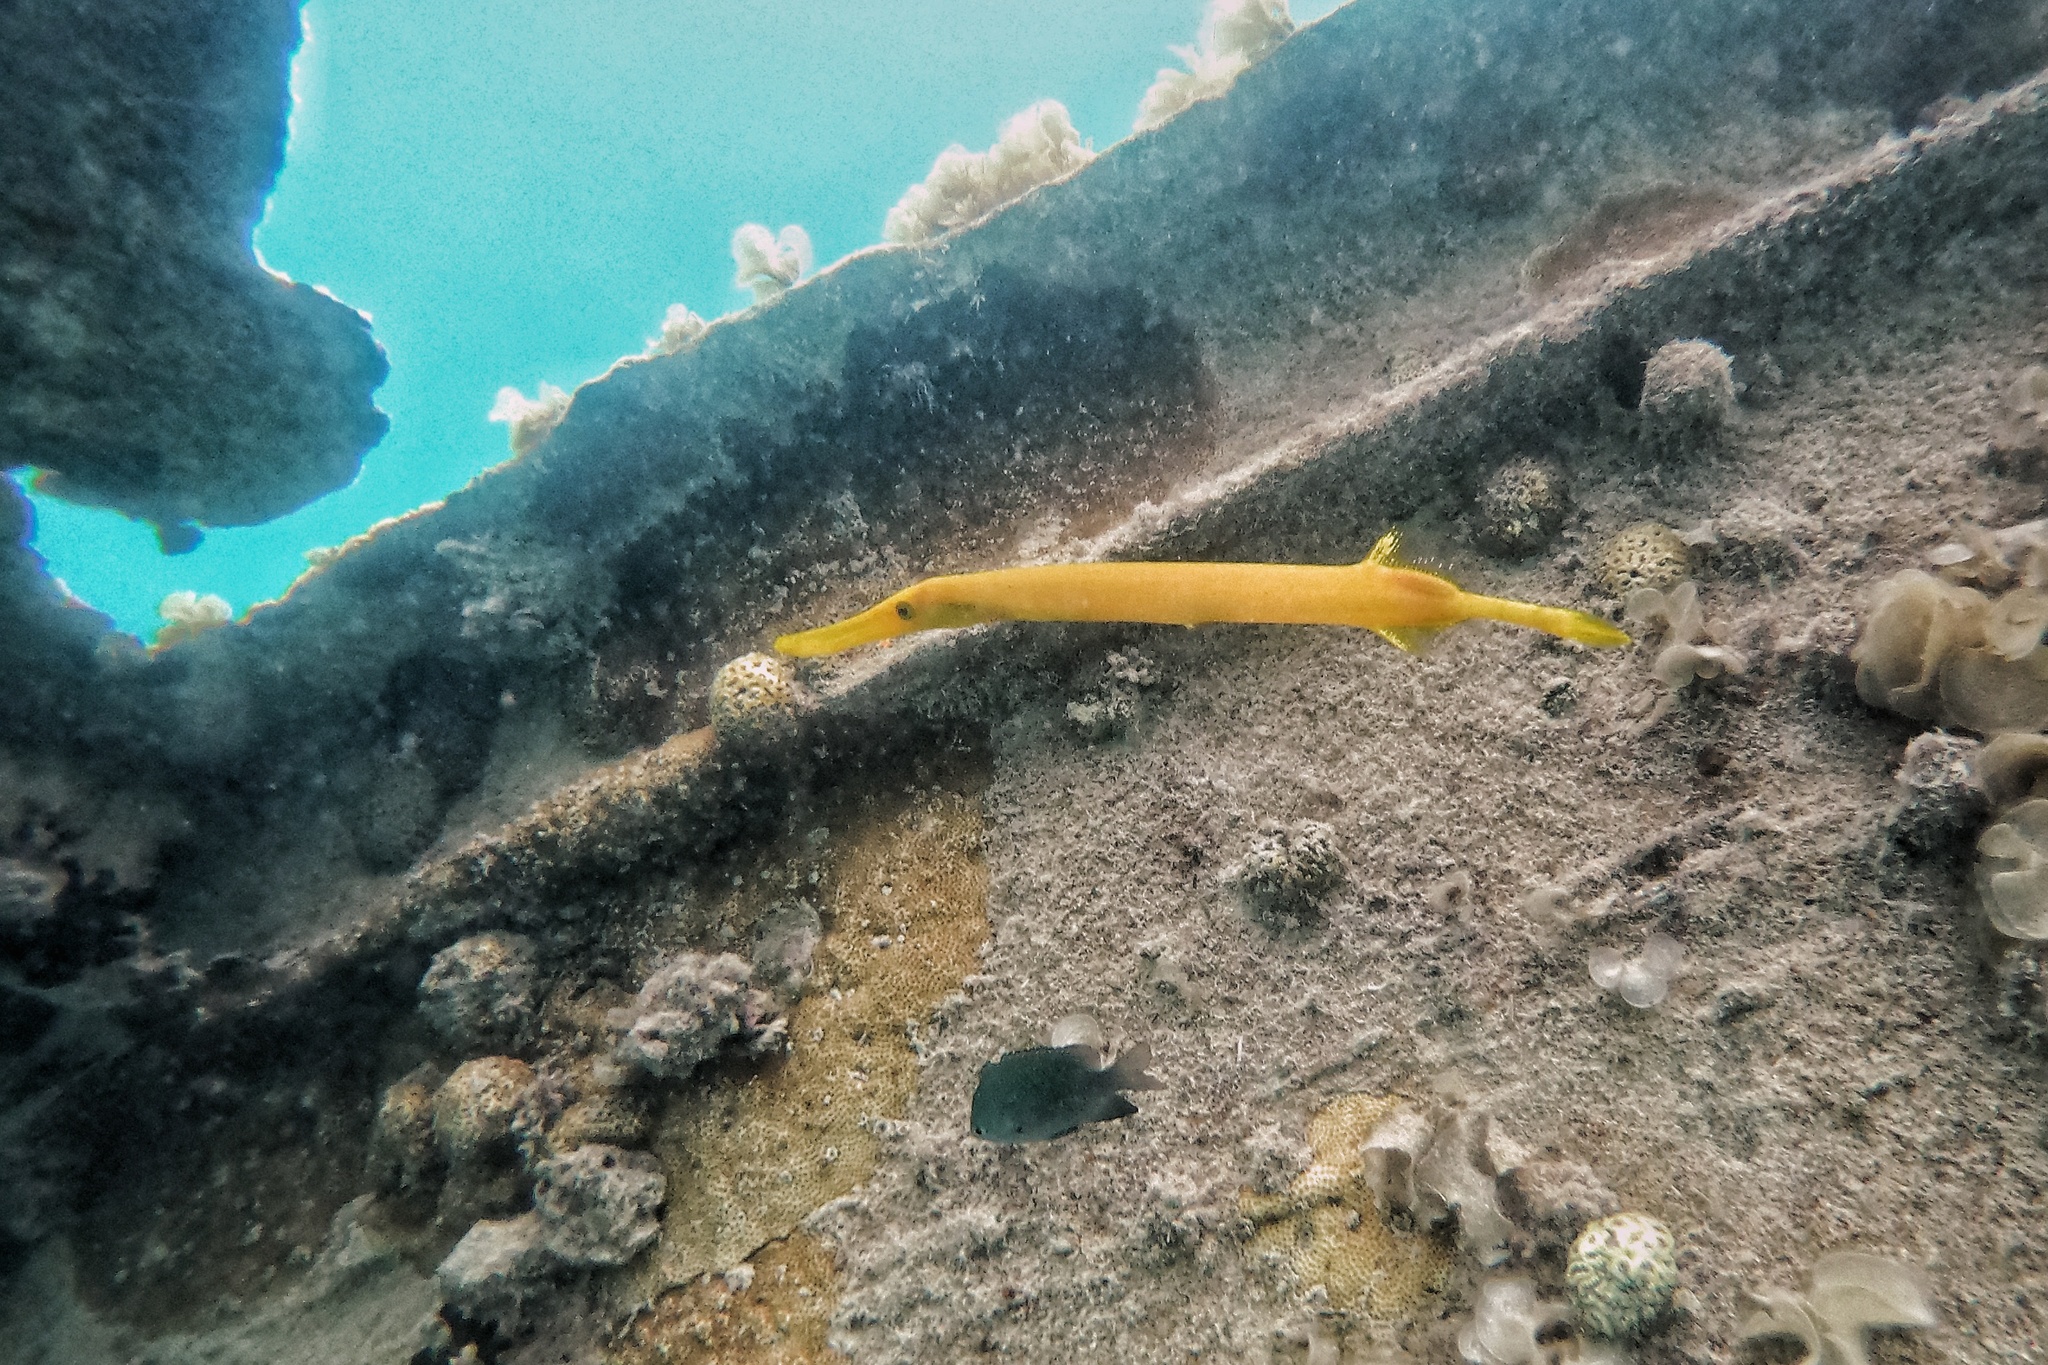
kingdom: Animalia
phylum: Chordata
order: Syngnathiformes
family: Aulostomidae
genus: Aulostomus
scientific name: Aulostomus chinensis
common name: Chinese trumpetfish
